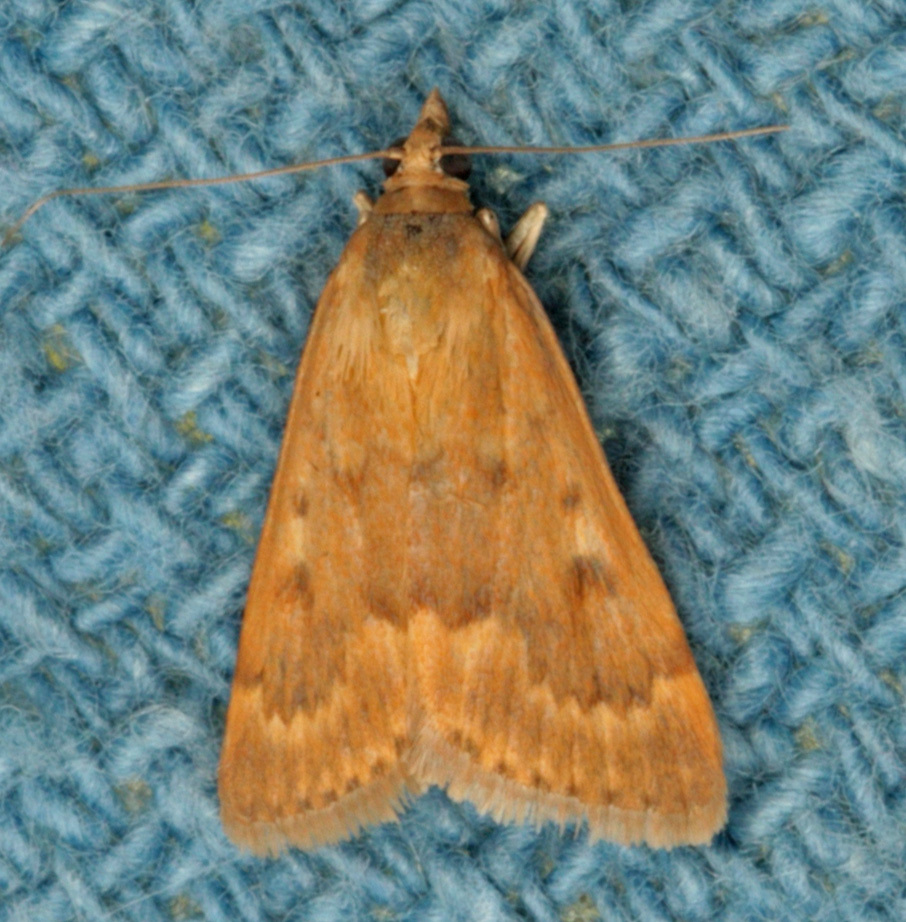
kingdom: Animalia
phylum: Arthropoda
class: Insecta
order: Lepidoptera
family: Crambidae
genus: Achyra
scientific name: Achyra rantalis
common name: Garden webworm
